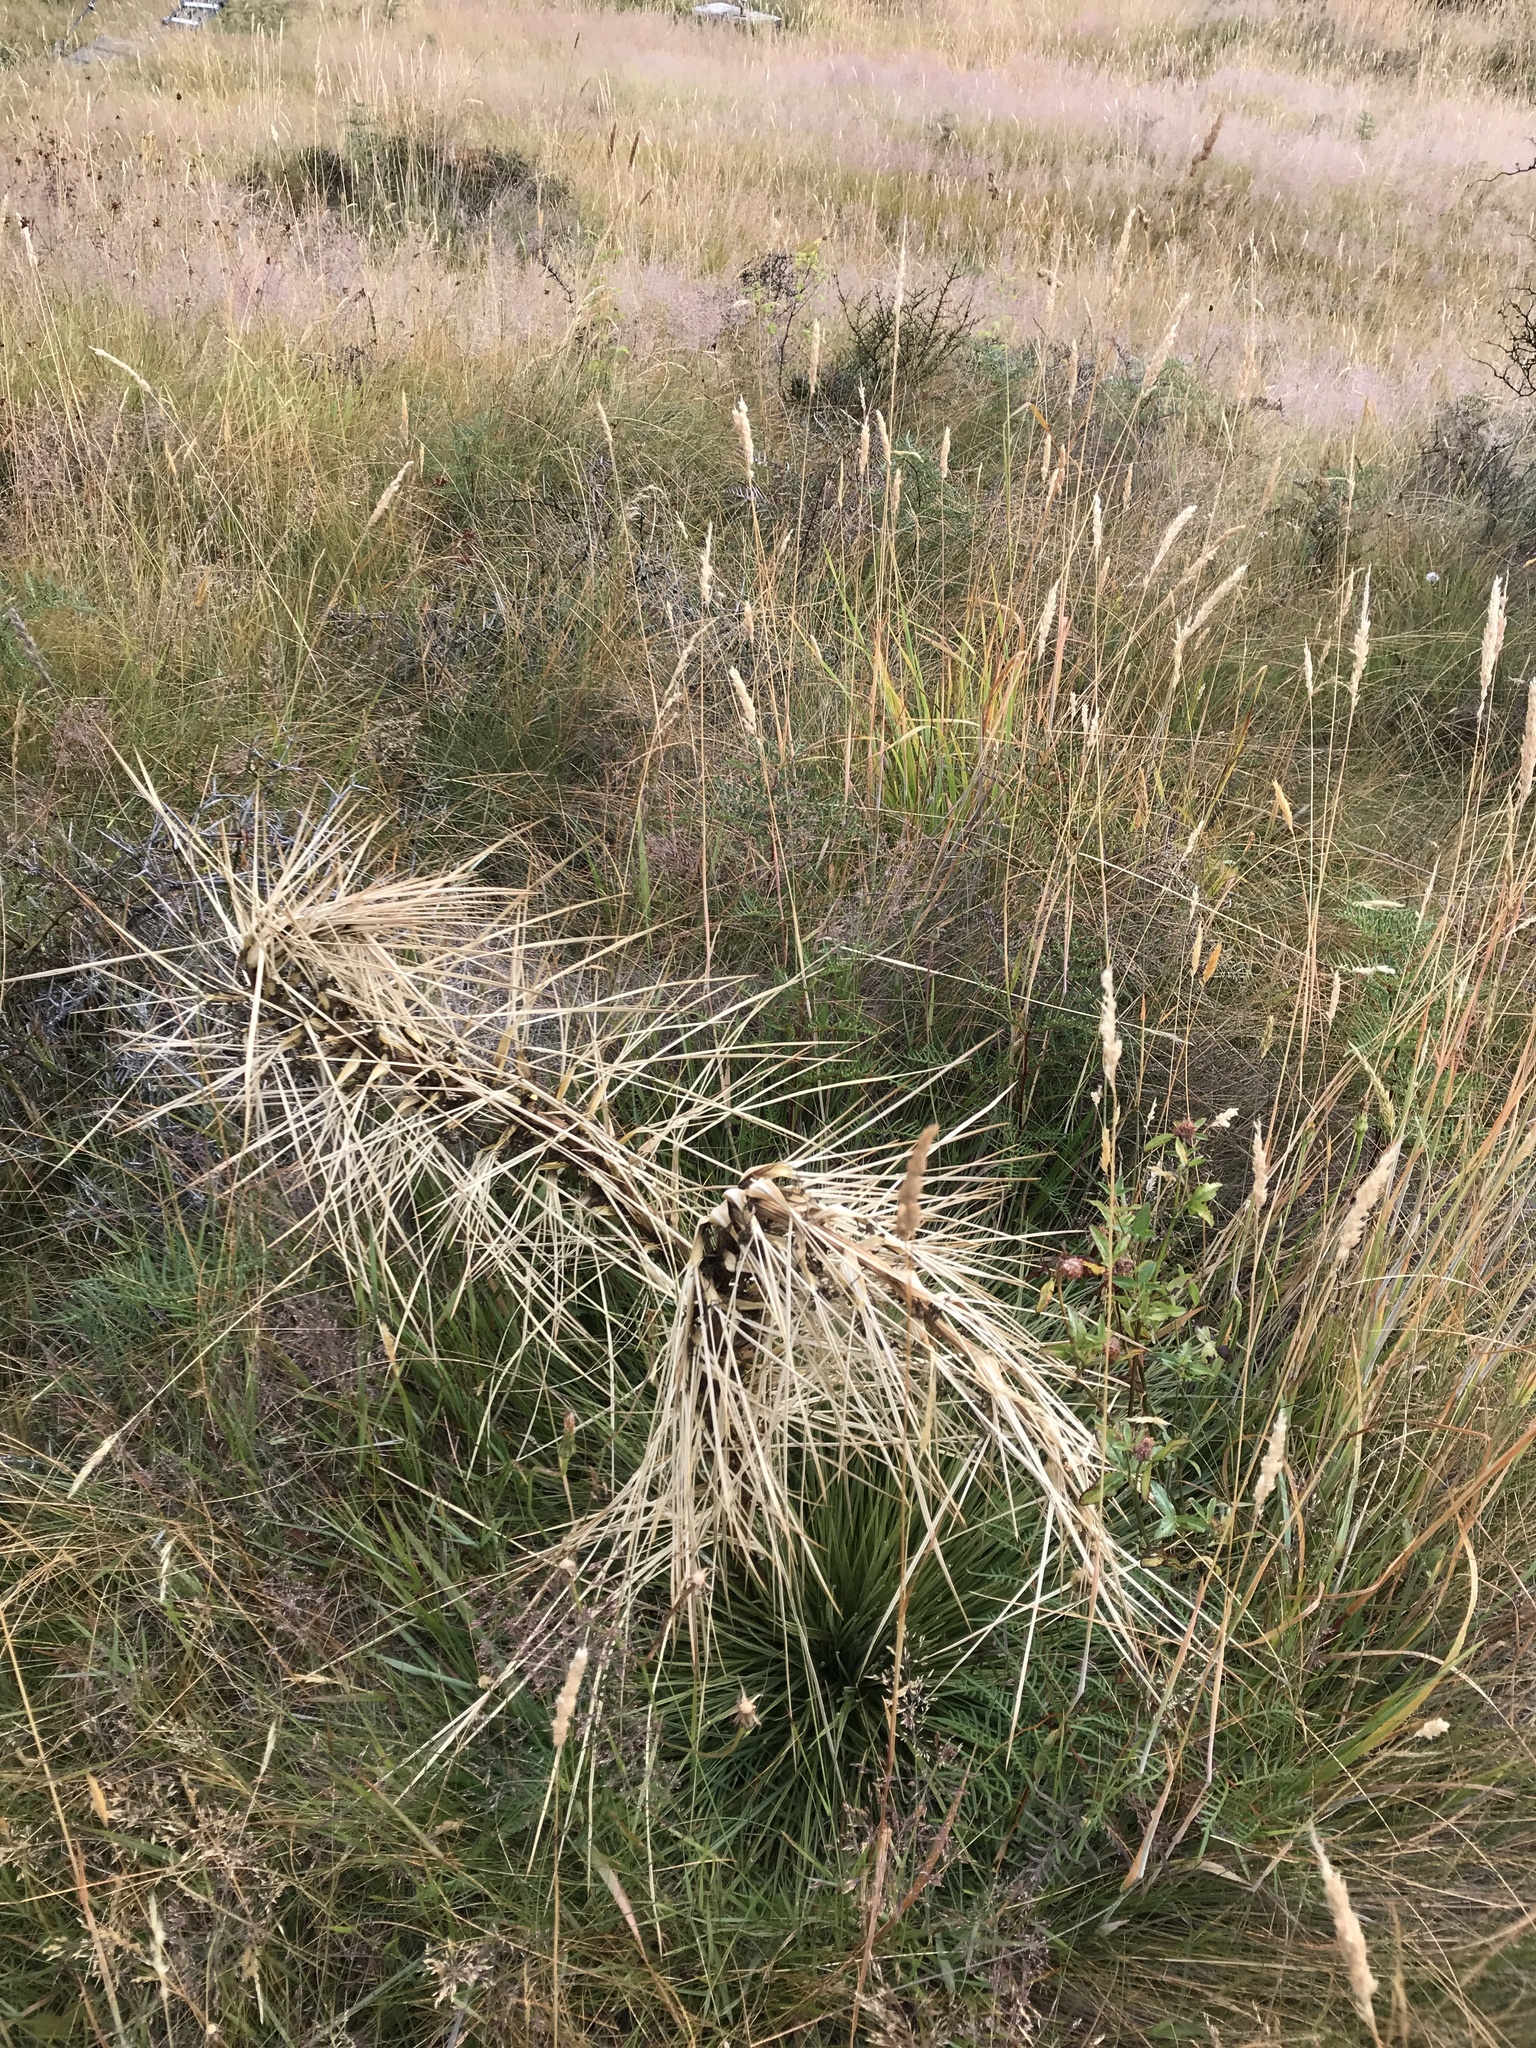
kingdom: Plantae
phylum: Tracheophyta
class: Magnoliopsida
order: Apiales
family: Apiaceae
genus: Aciphylla
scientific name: Aciphylla subflabellata
